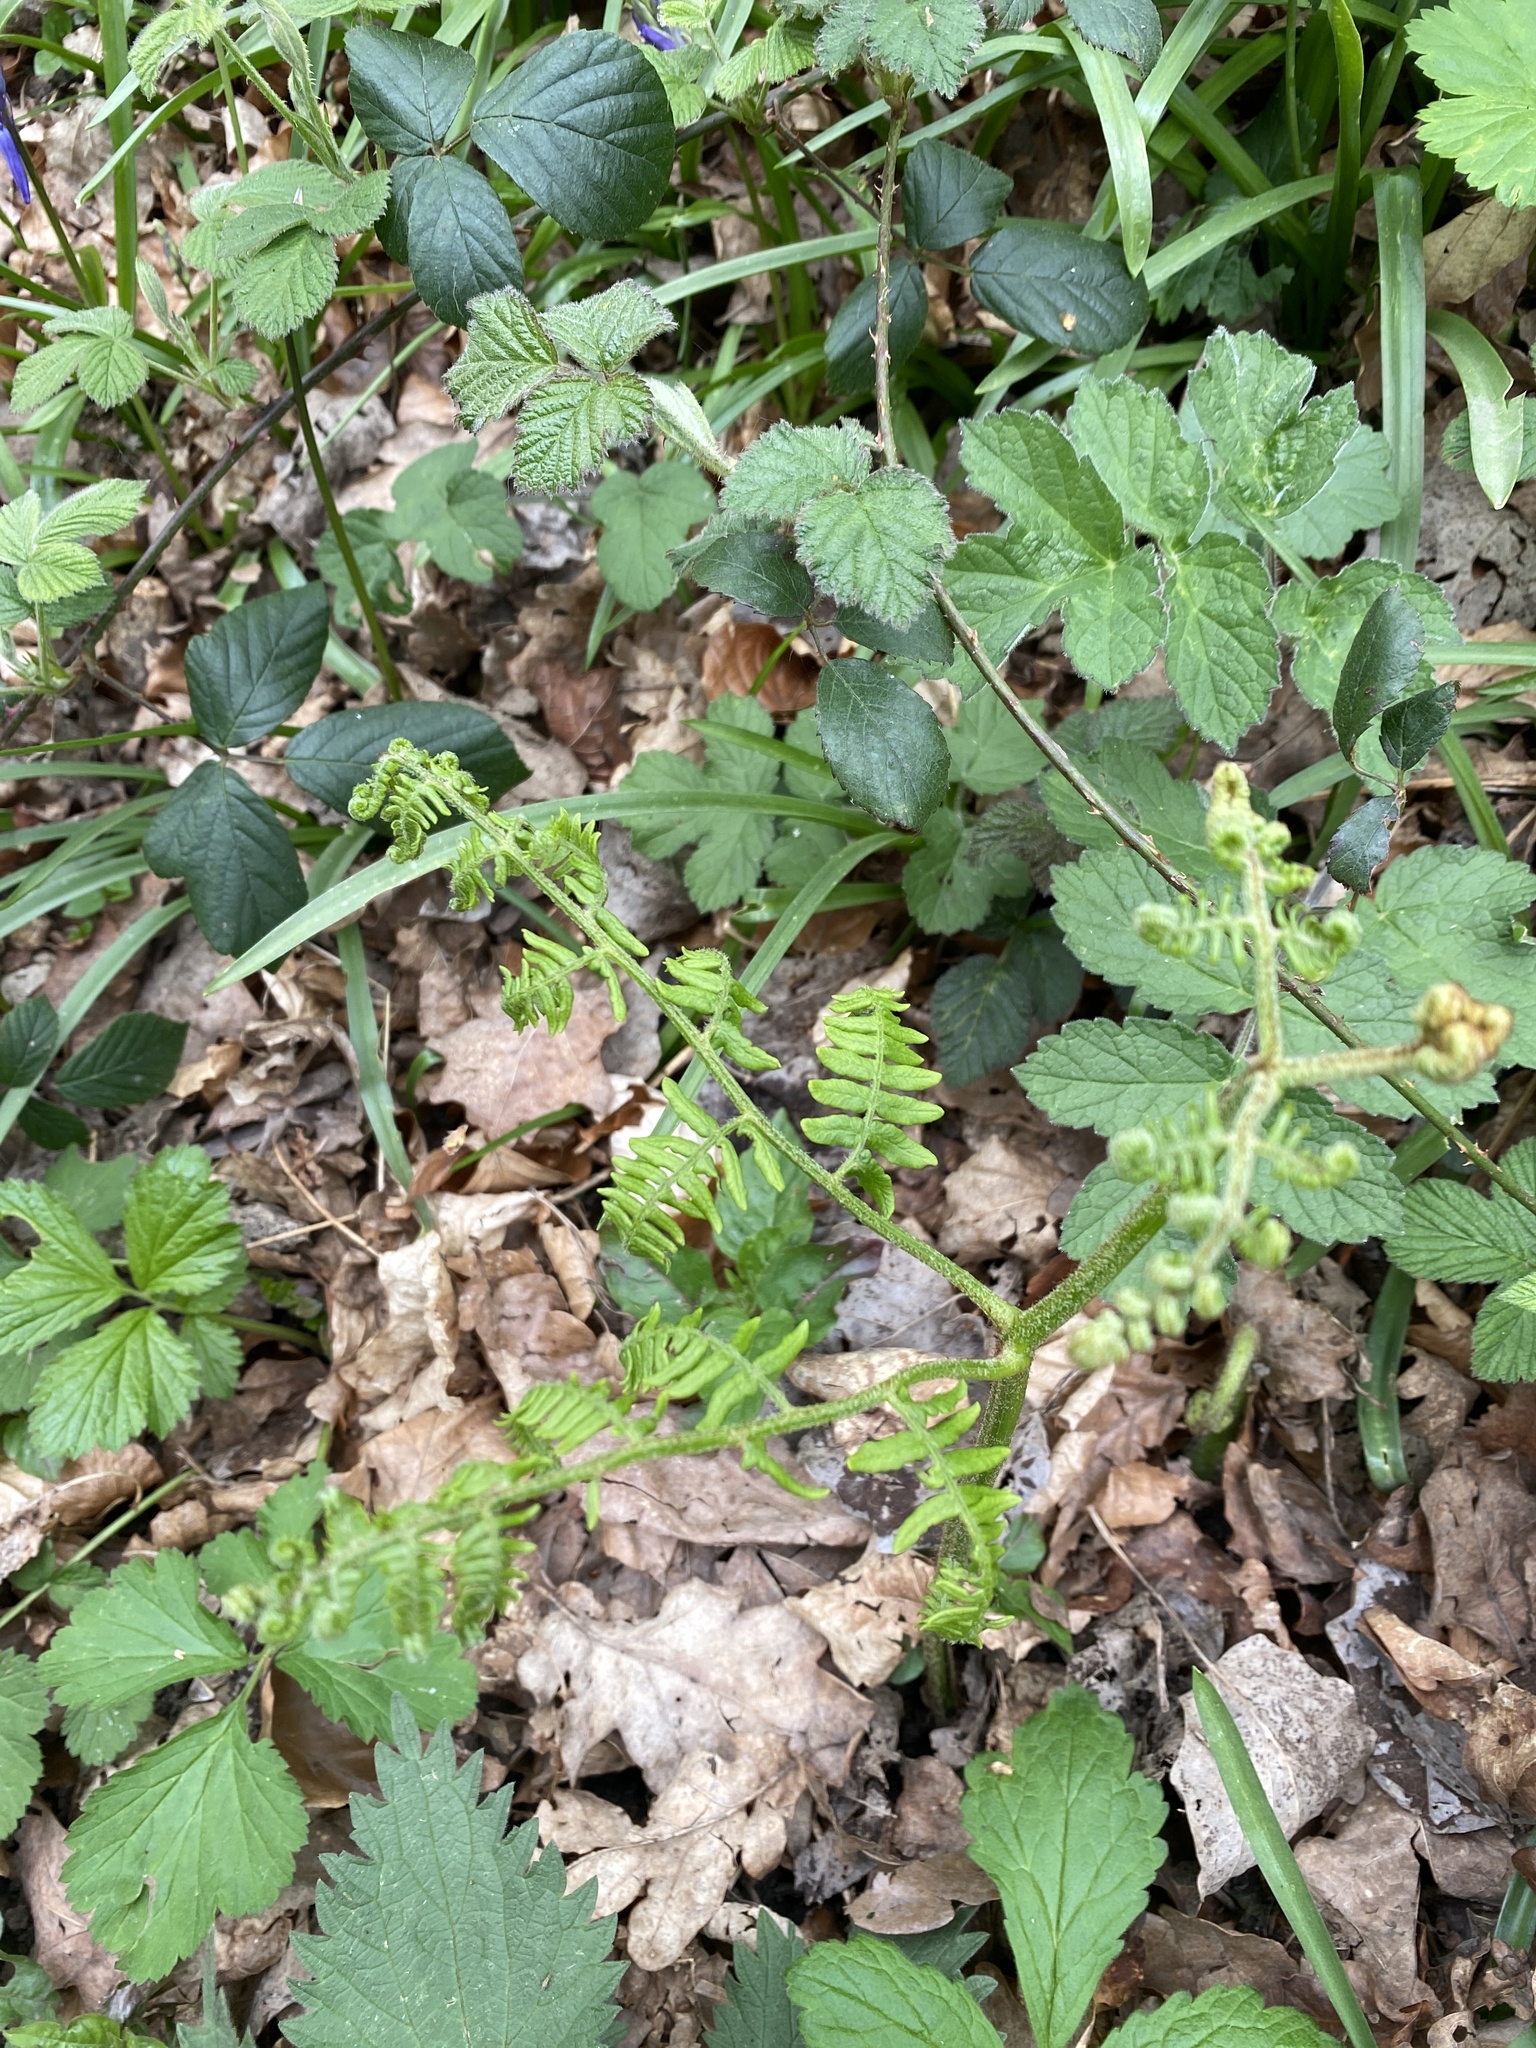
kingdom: Plantae
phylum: Tracheophyta
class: Polypodiopsida
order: Polypodiales
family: Dennstaedtiaceae
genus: Pteridium
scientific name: Pteridium aquilinum
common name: Bracken
